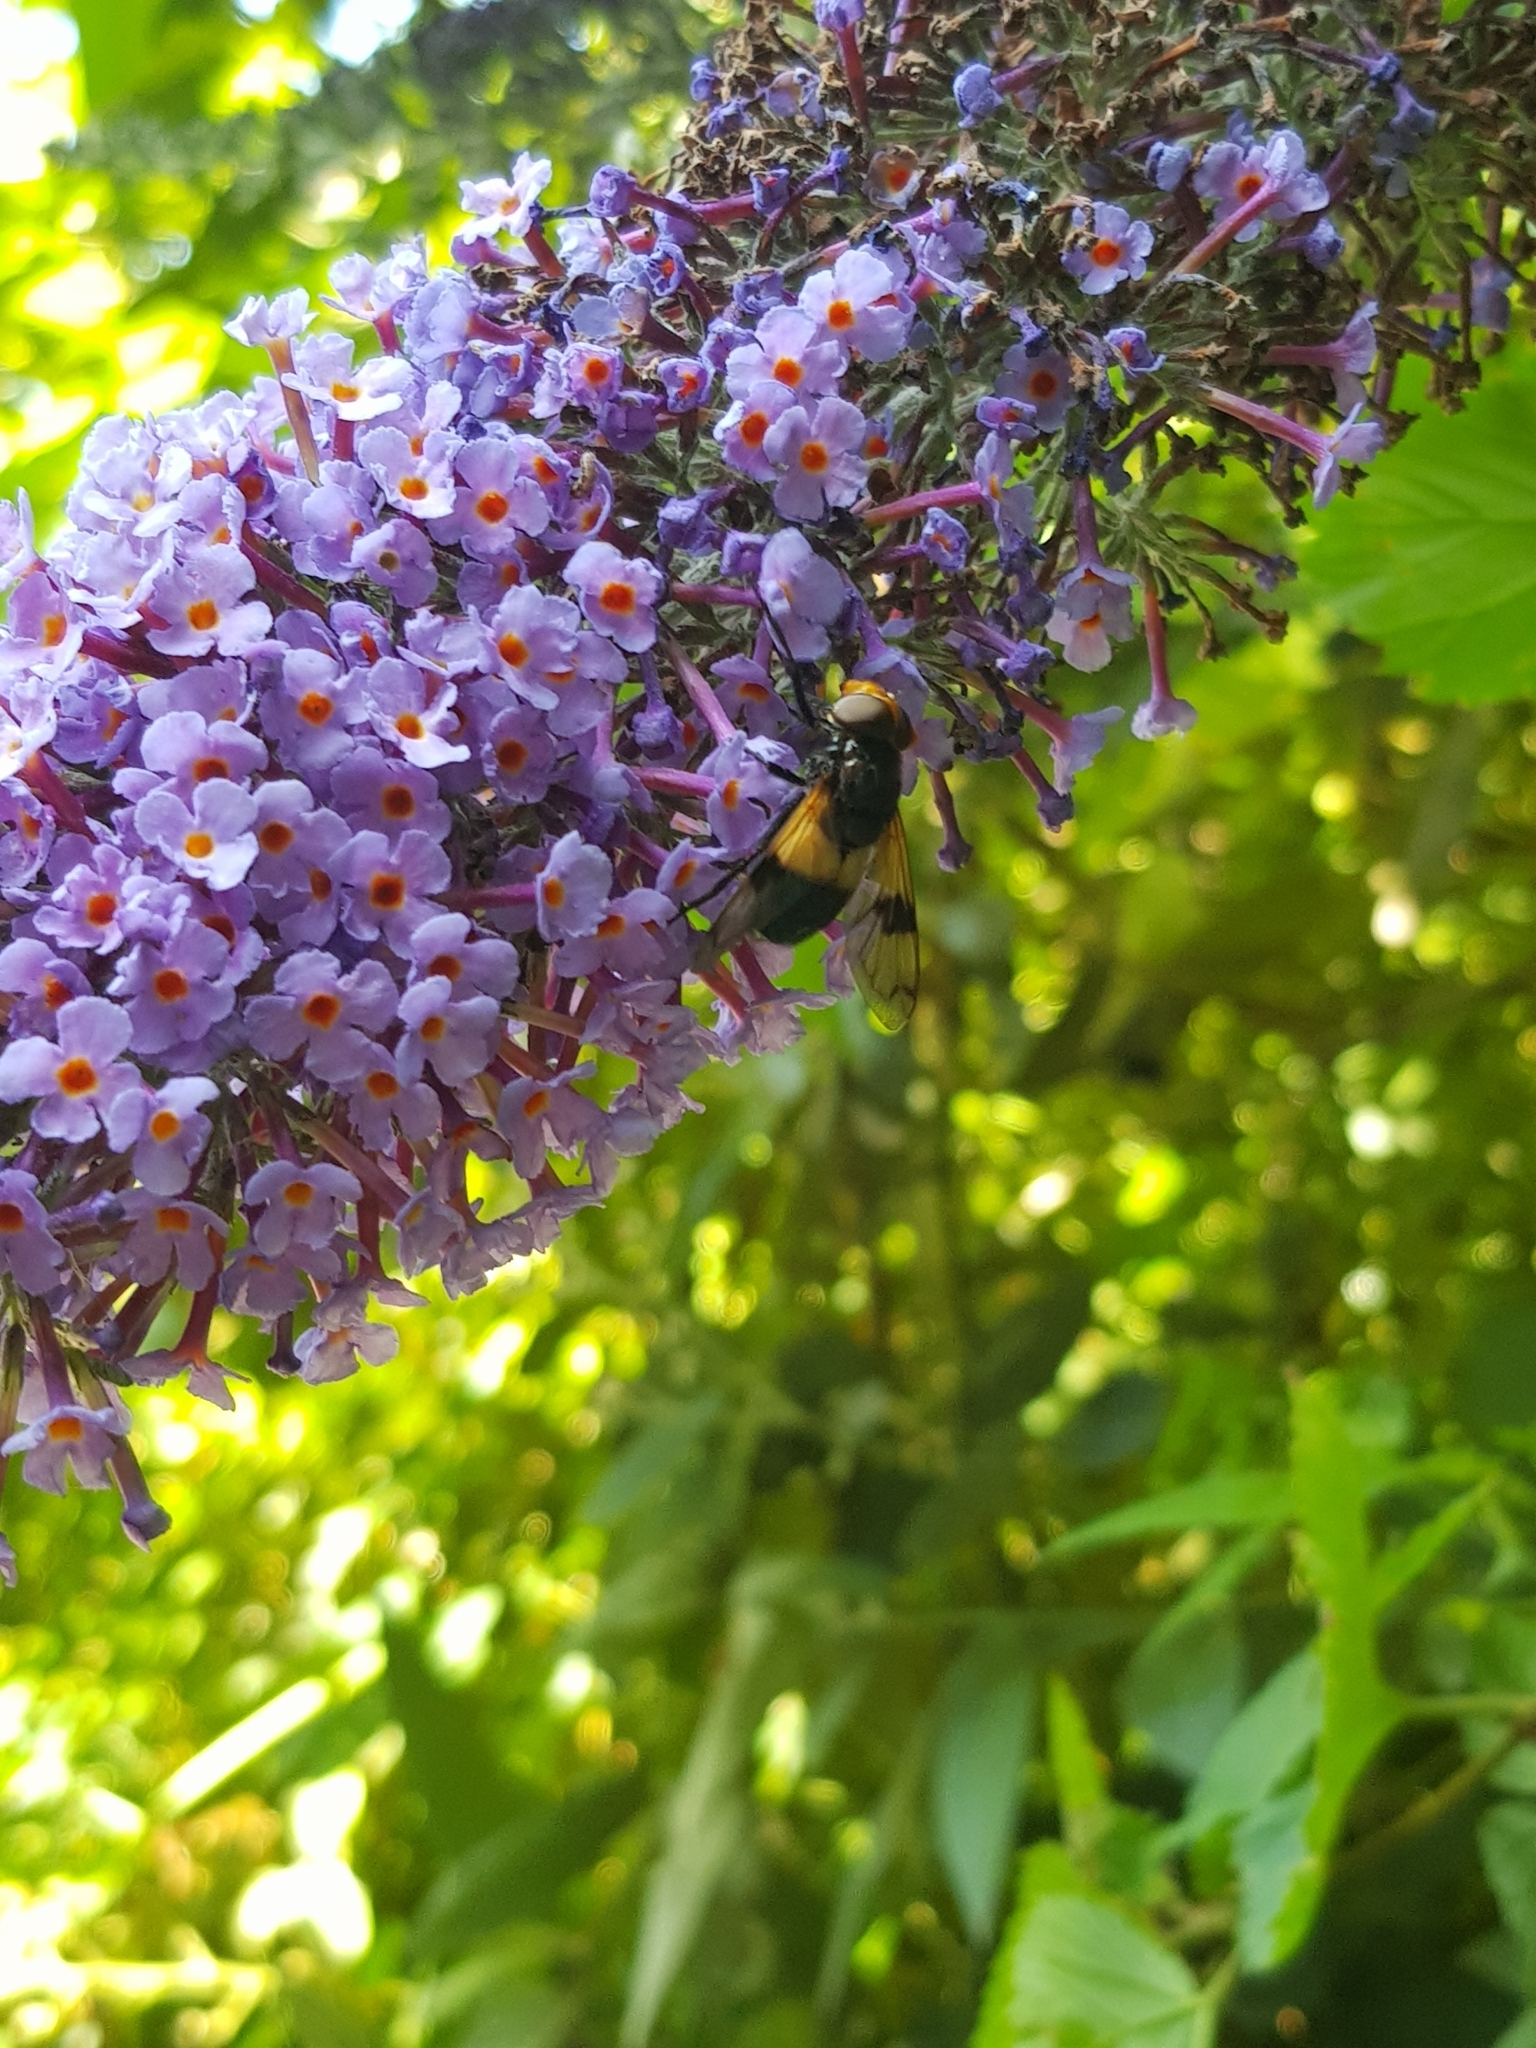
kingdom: Animalia
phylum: Arthropoda
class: Insecta
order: Diptera
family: Syrphidae
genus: Volucella
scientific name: Volucella pellucens
